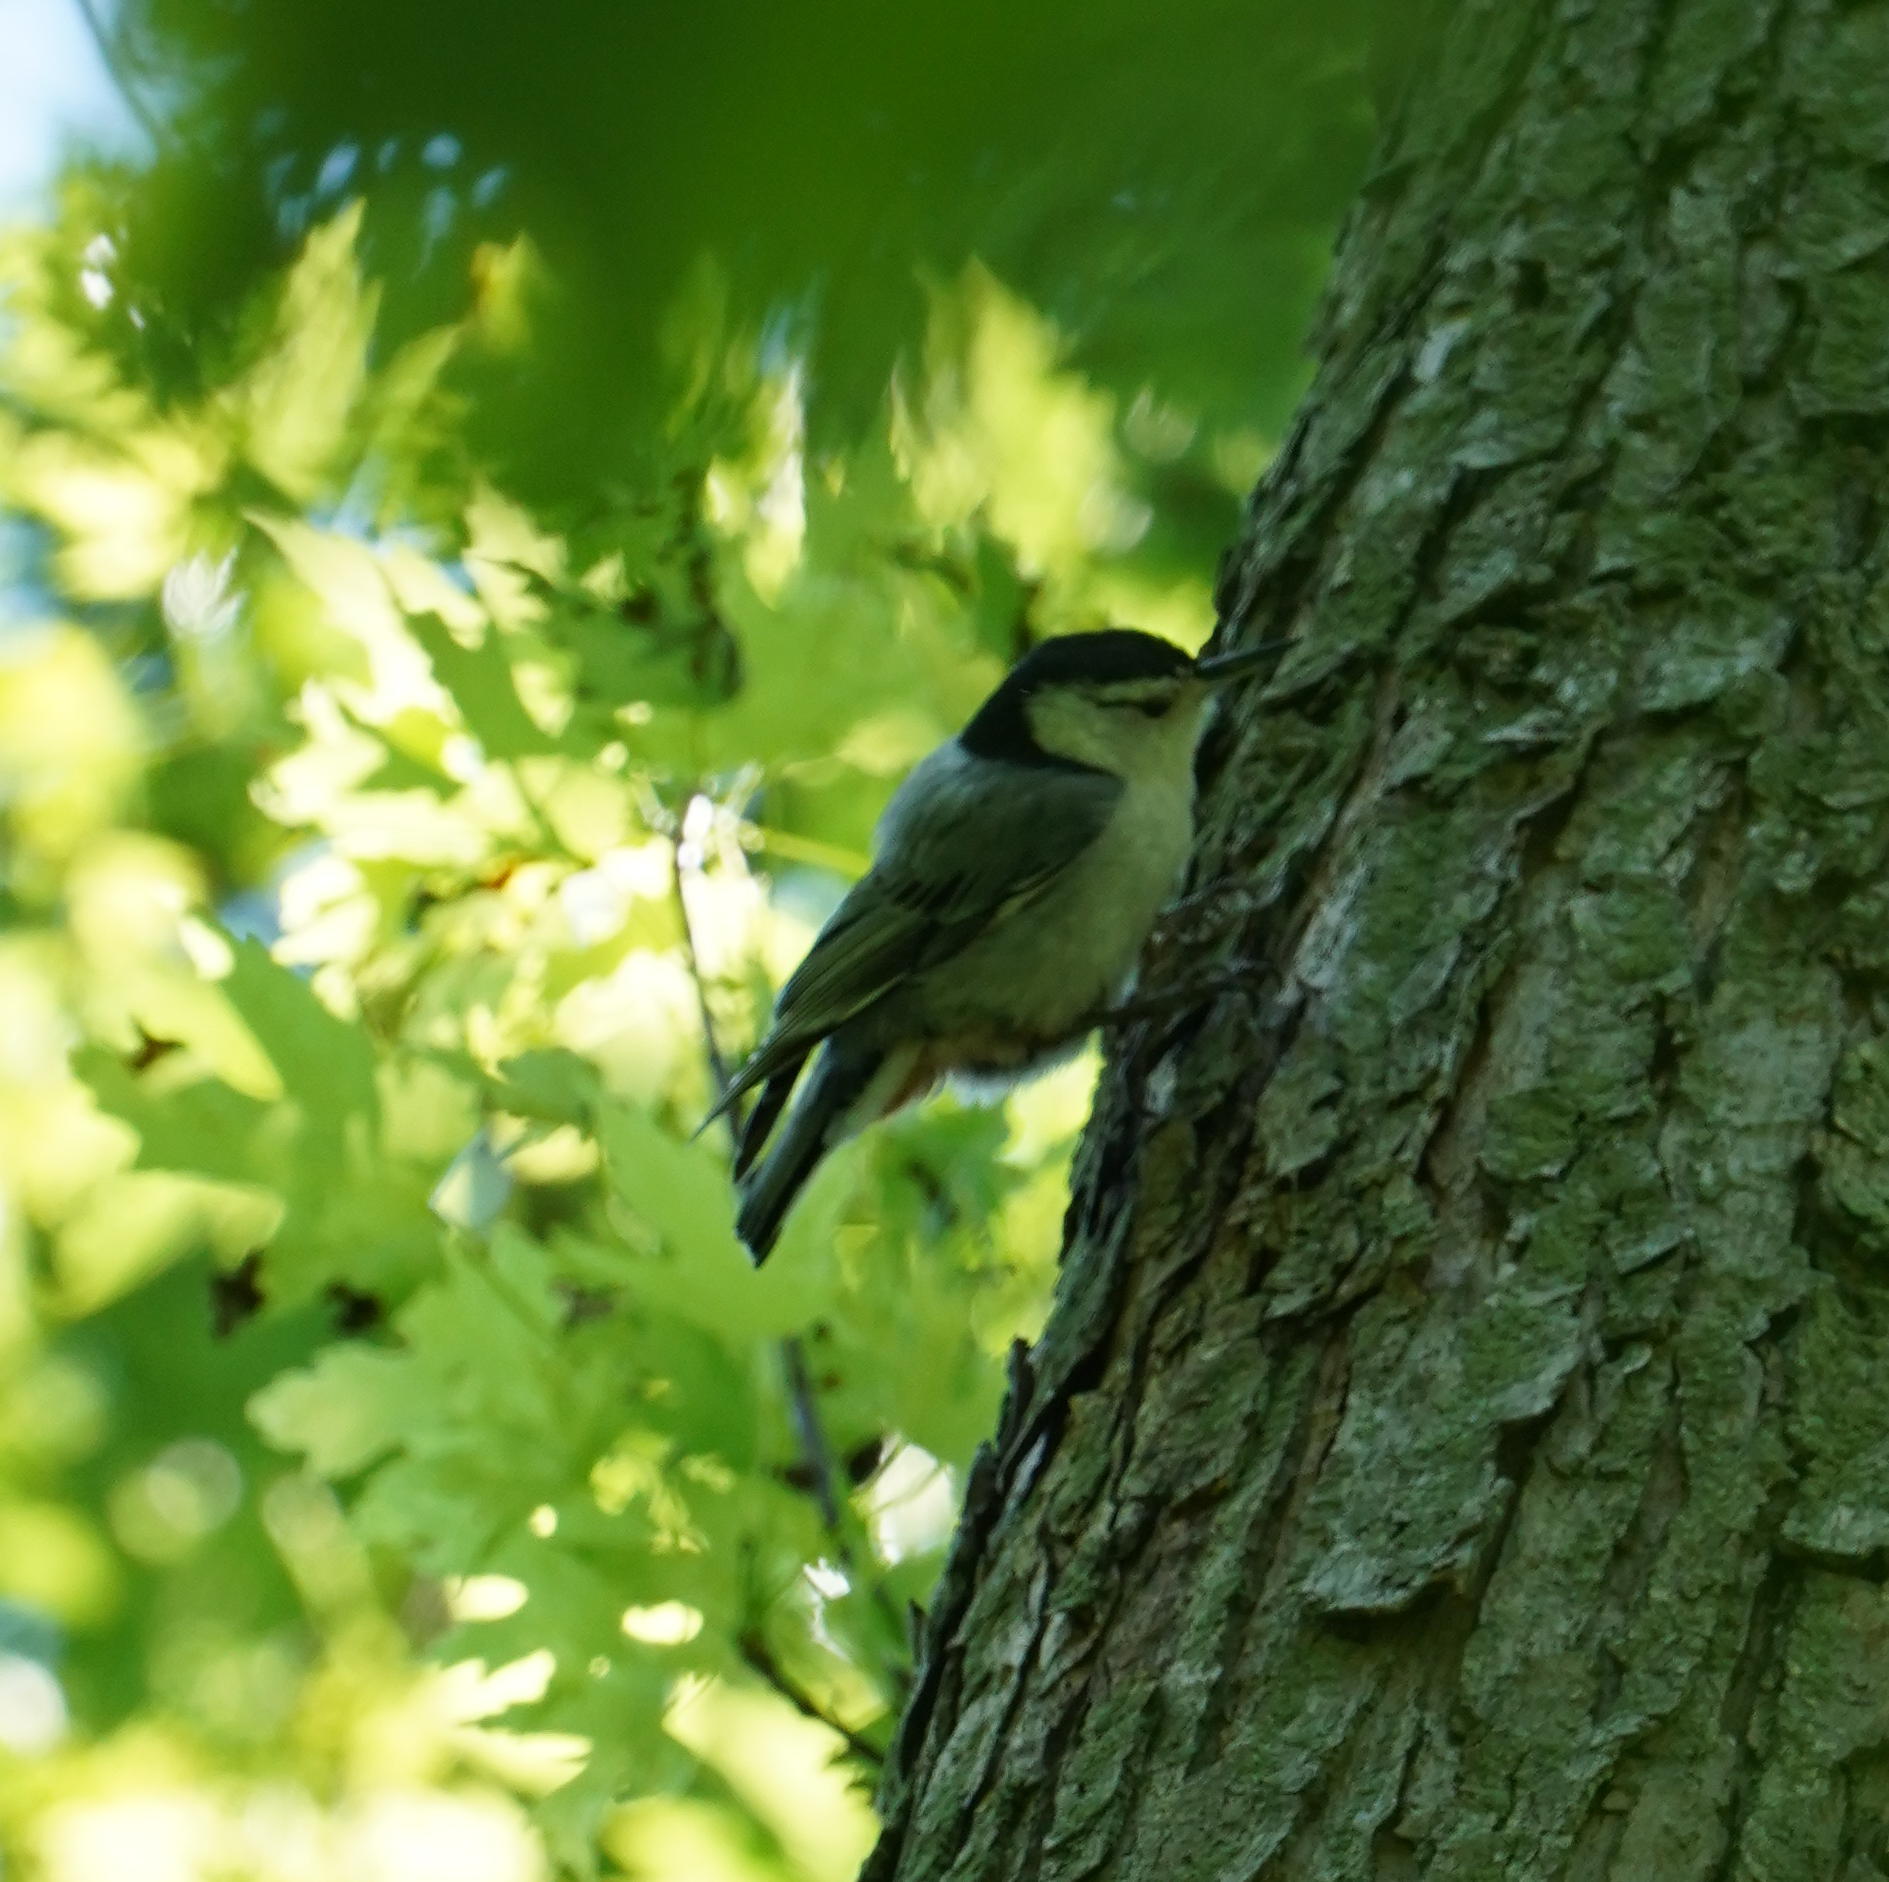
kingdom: Animalia
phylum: Chordata
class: Aves
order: Passeriformes
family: Sittidae
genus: Sitta
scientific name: Sitta carolinensis
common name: White-breasted nuthatch
